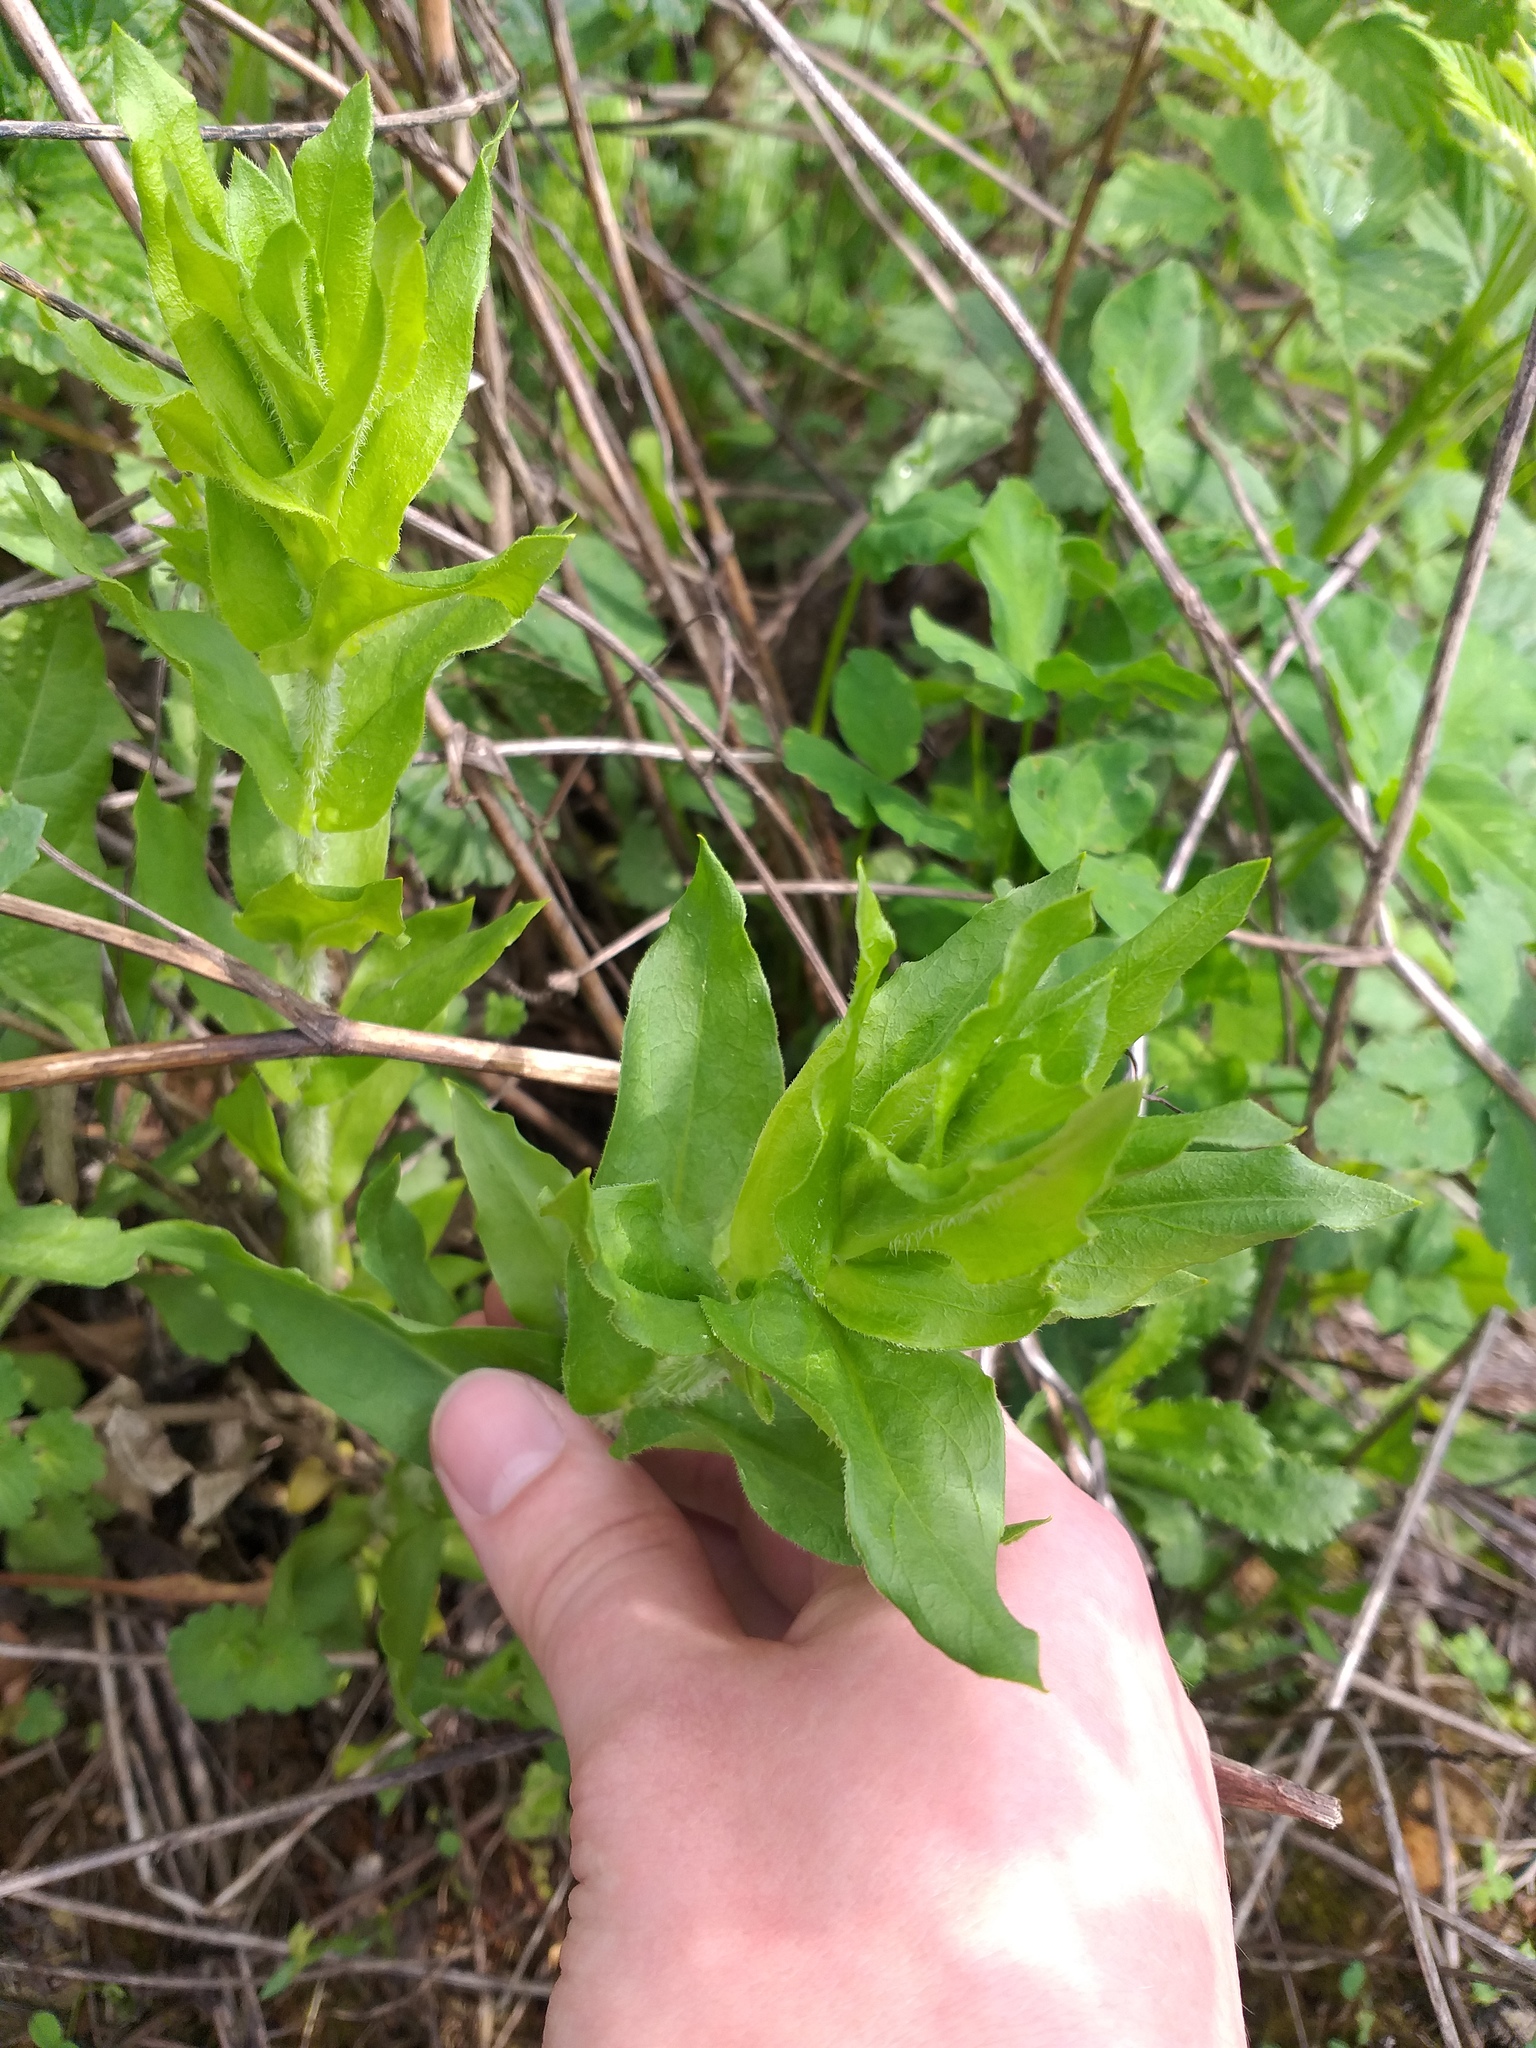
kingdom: Plantae
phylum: Tracheophyta
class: Magnoliopsida
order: Caryophyllales
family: Caryophyllaceae
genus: Silene
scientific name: Silene chalcedonica
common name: Maltese-cross
